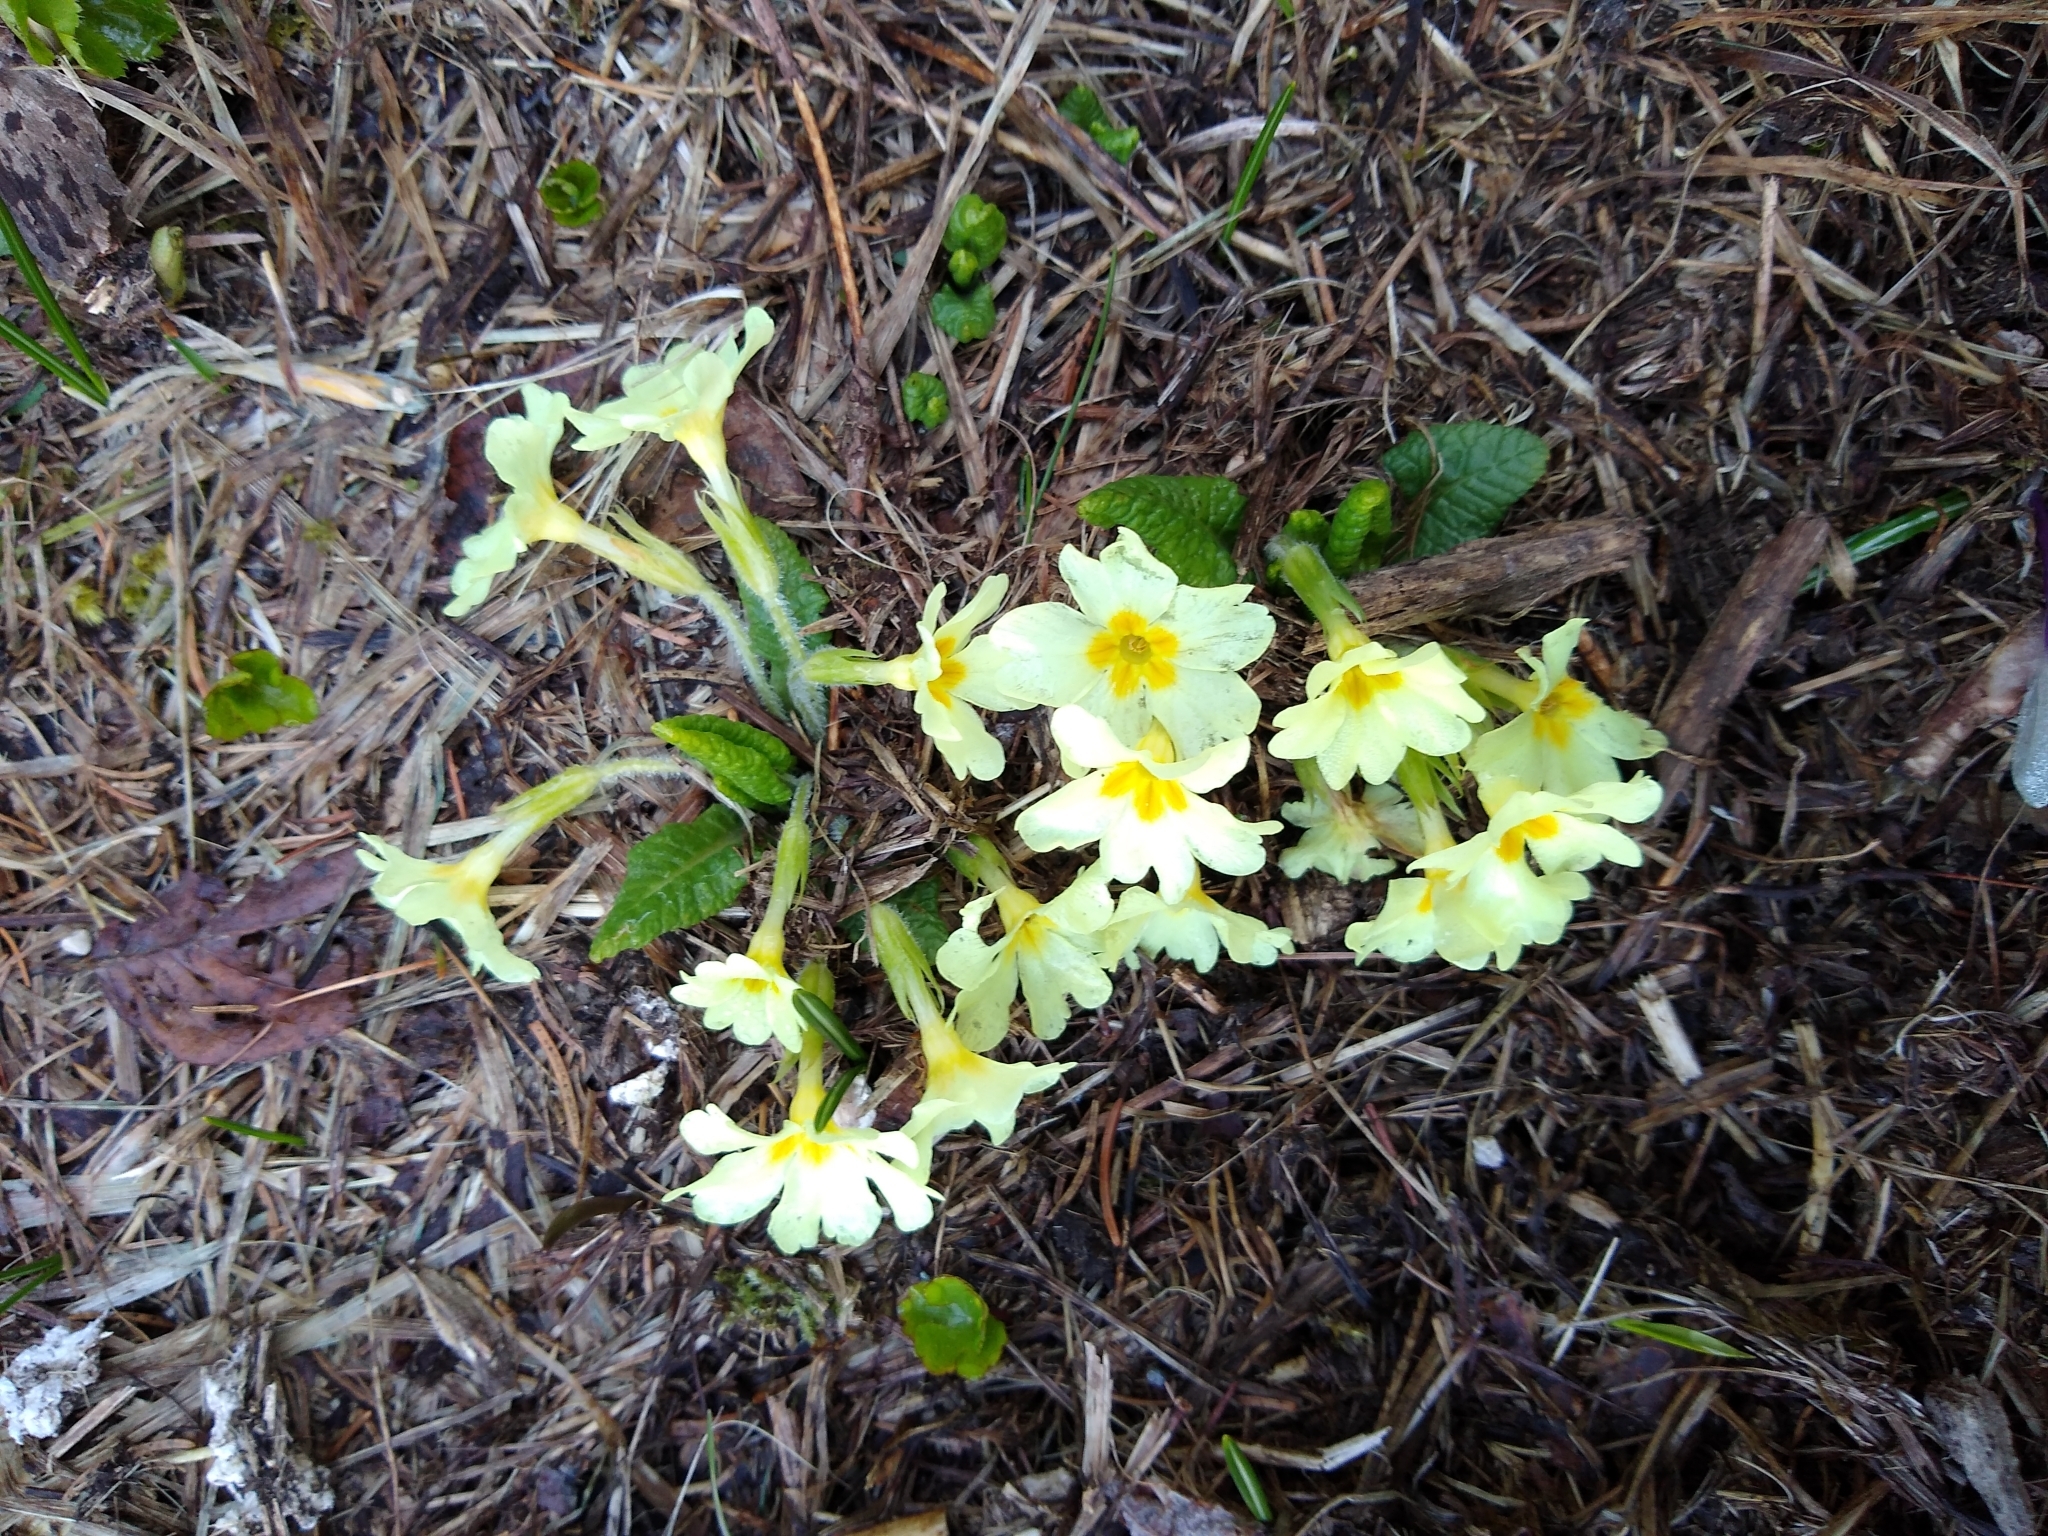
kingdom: Plantae
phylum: Tracheophyta
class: Magnoliopsida
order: Ericales
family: Primulaceae
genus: Primula
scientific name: Primula vulgaris
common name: Primrose
